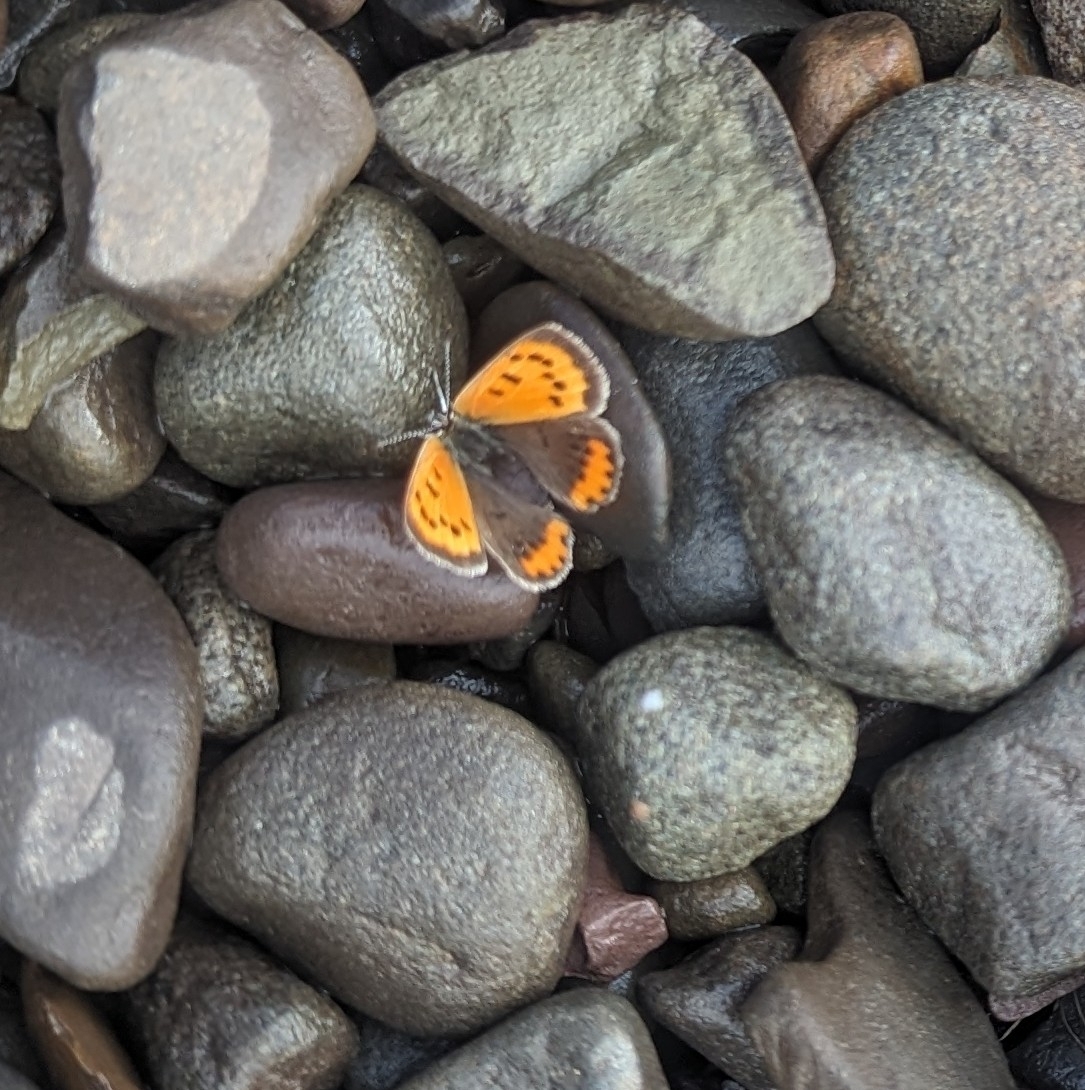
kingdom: Animalia
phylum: Arthropoda
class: Insecta
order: Lepidoptera
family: Lycaenidae
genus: Lycaena
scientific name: Lycaena hypophlaeas
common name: American copper
